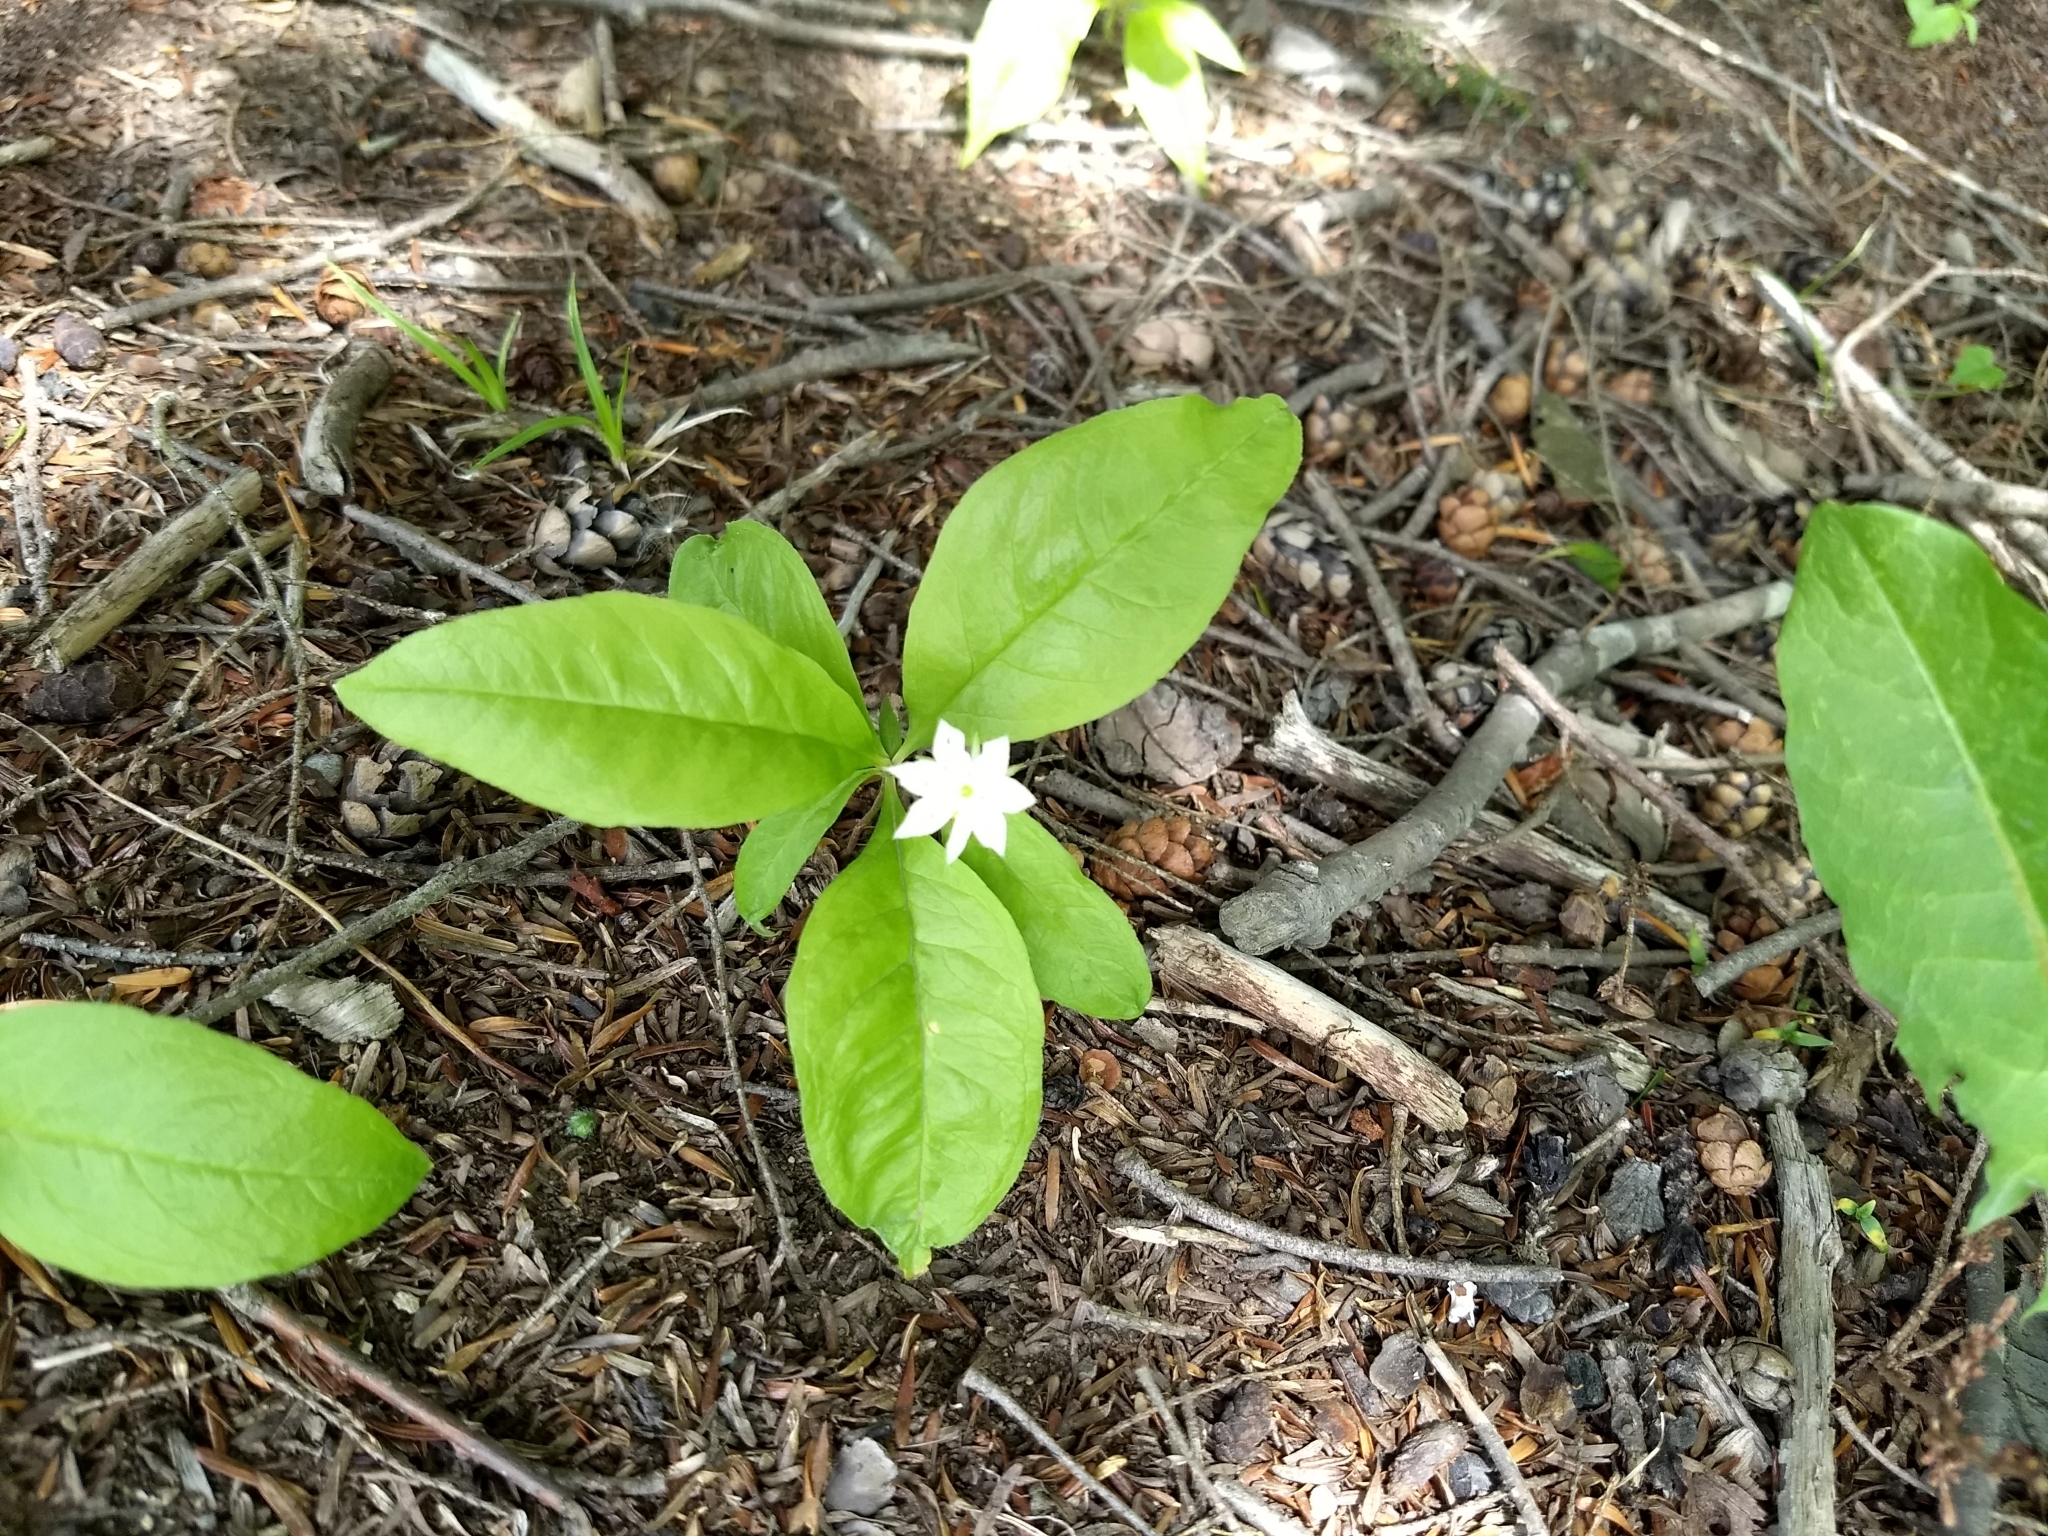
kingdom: Plantae
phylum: Tracheophyta
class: Magnoliopsida
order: Ericales
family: Primulaceae
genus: Lysimachia
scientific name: Lysimachia borealis
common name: American starflower
